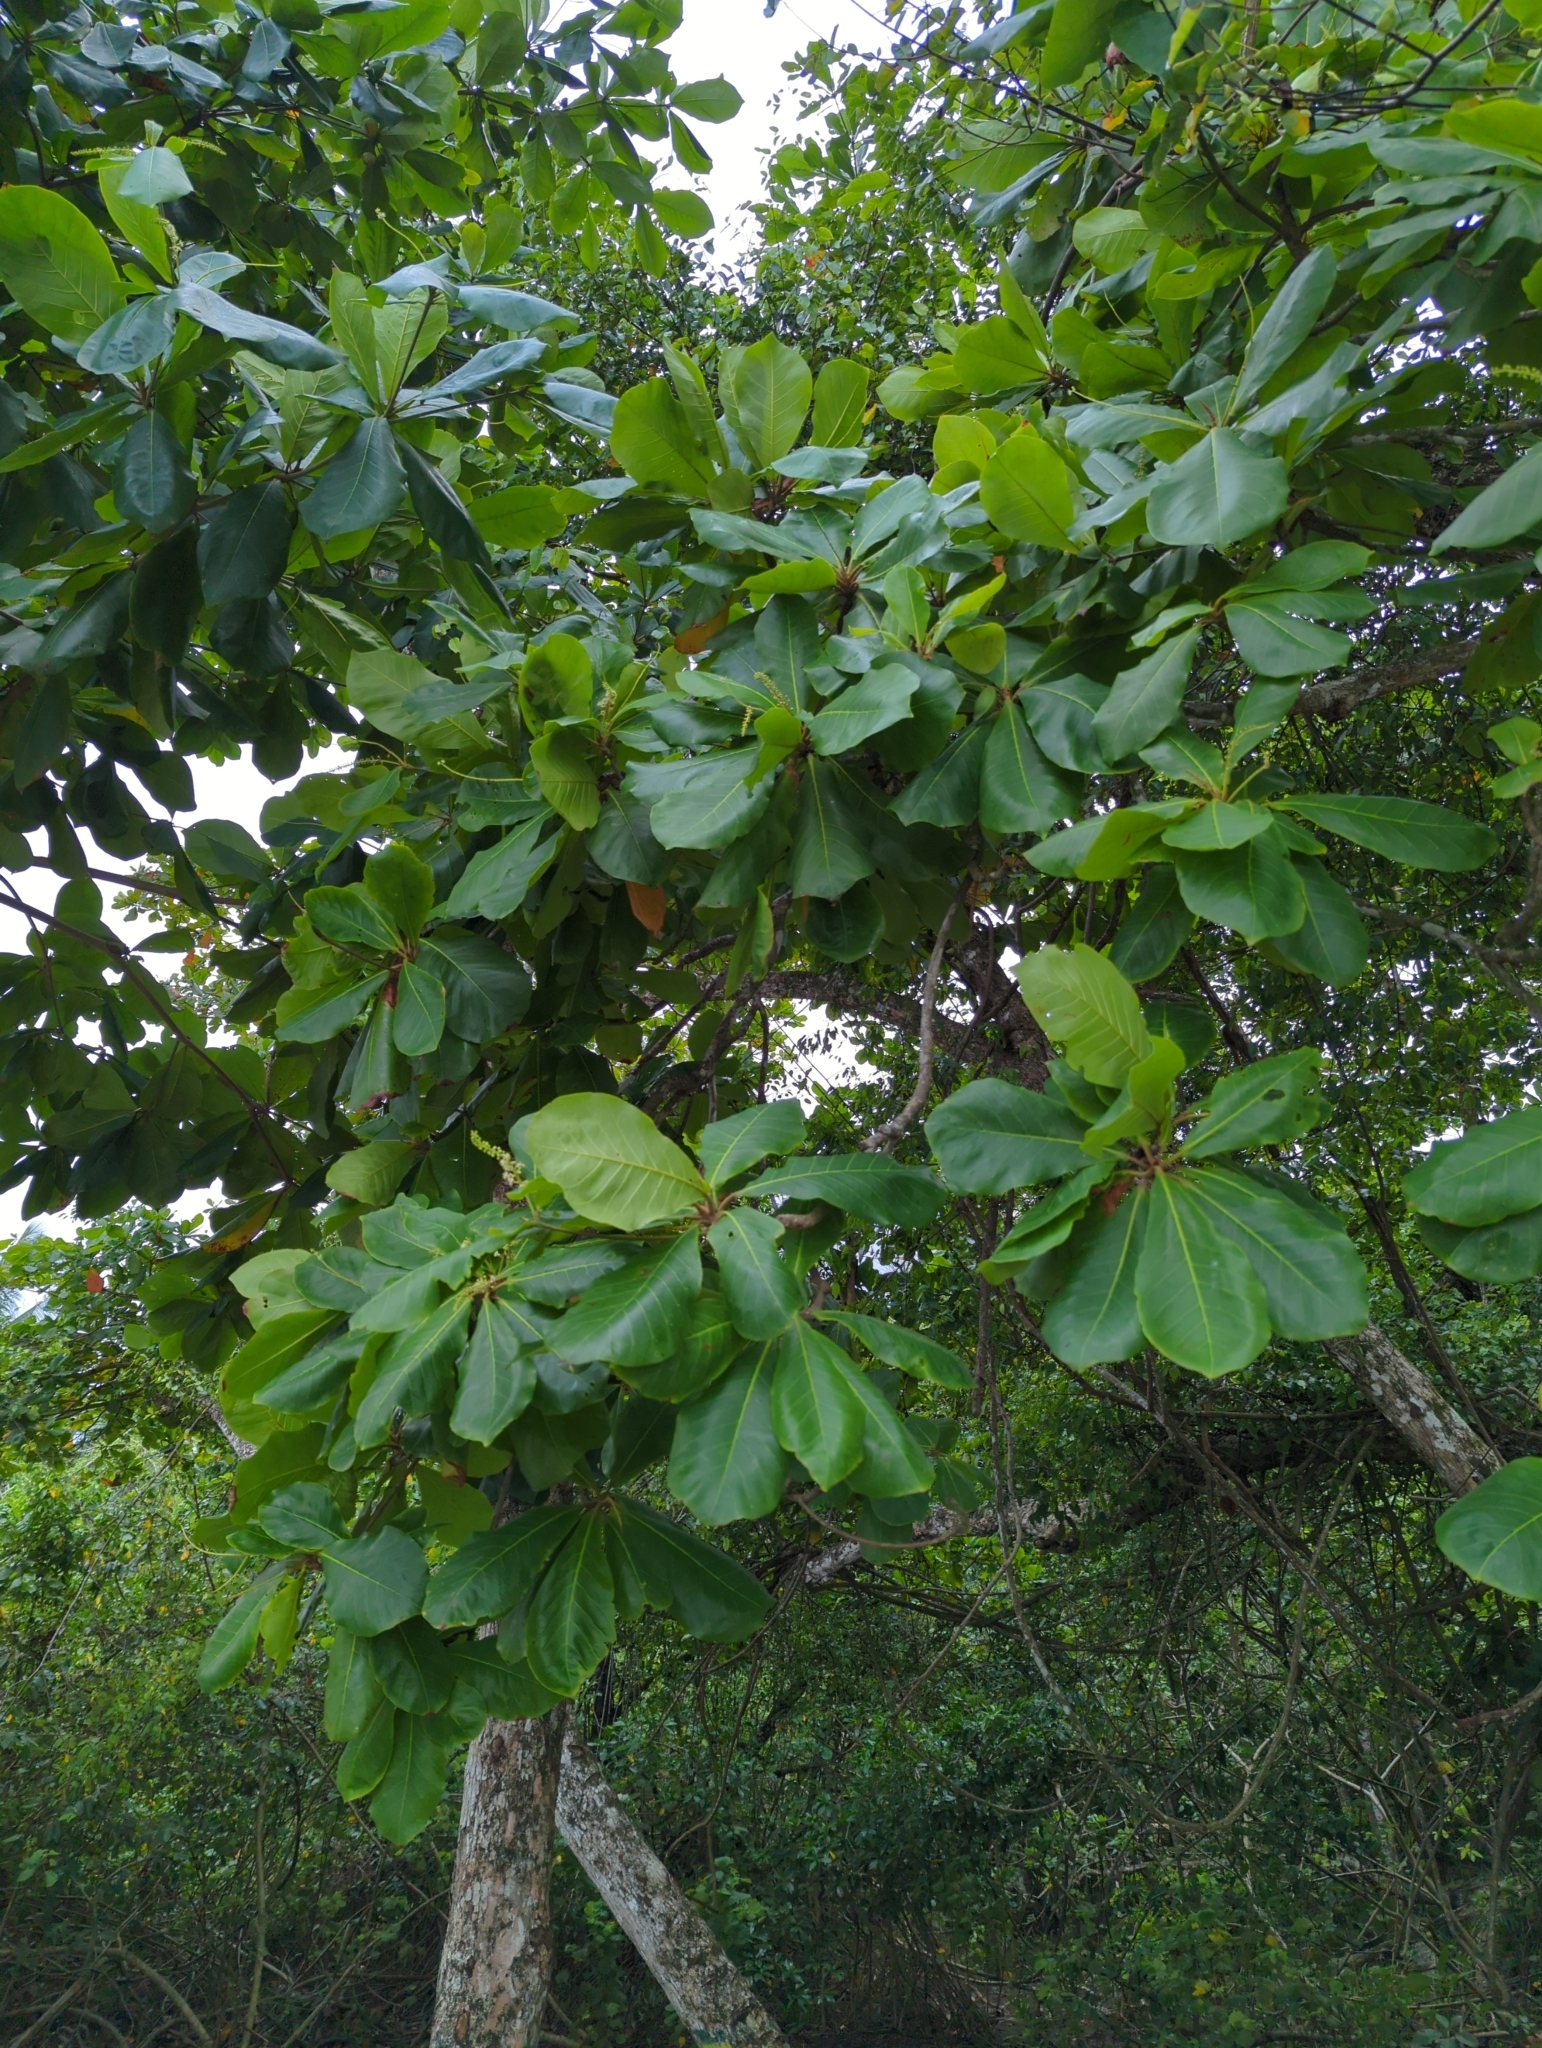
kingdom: Plantae
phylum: Tracheophyta
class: Magnoliopsida
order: Myrtales
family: Combretaceae
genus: Terminalia
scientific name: Terminalia catappa
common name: Tropical almond
